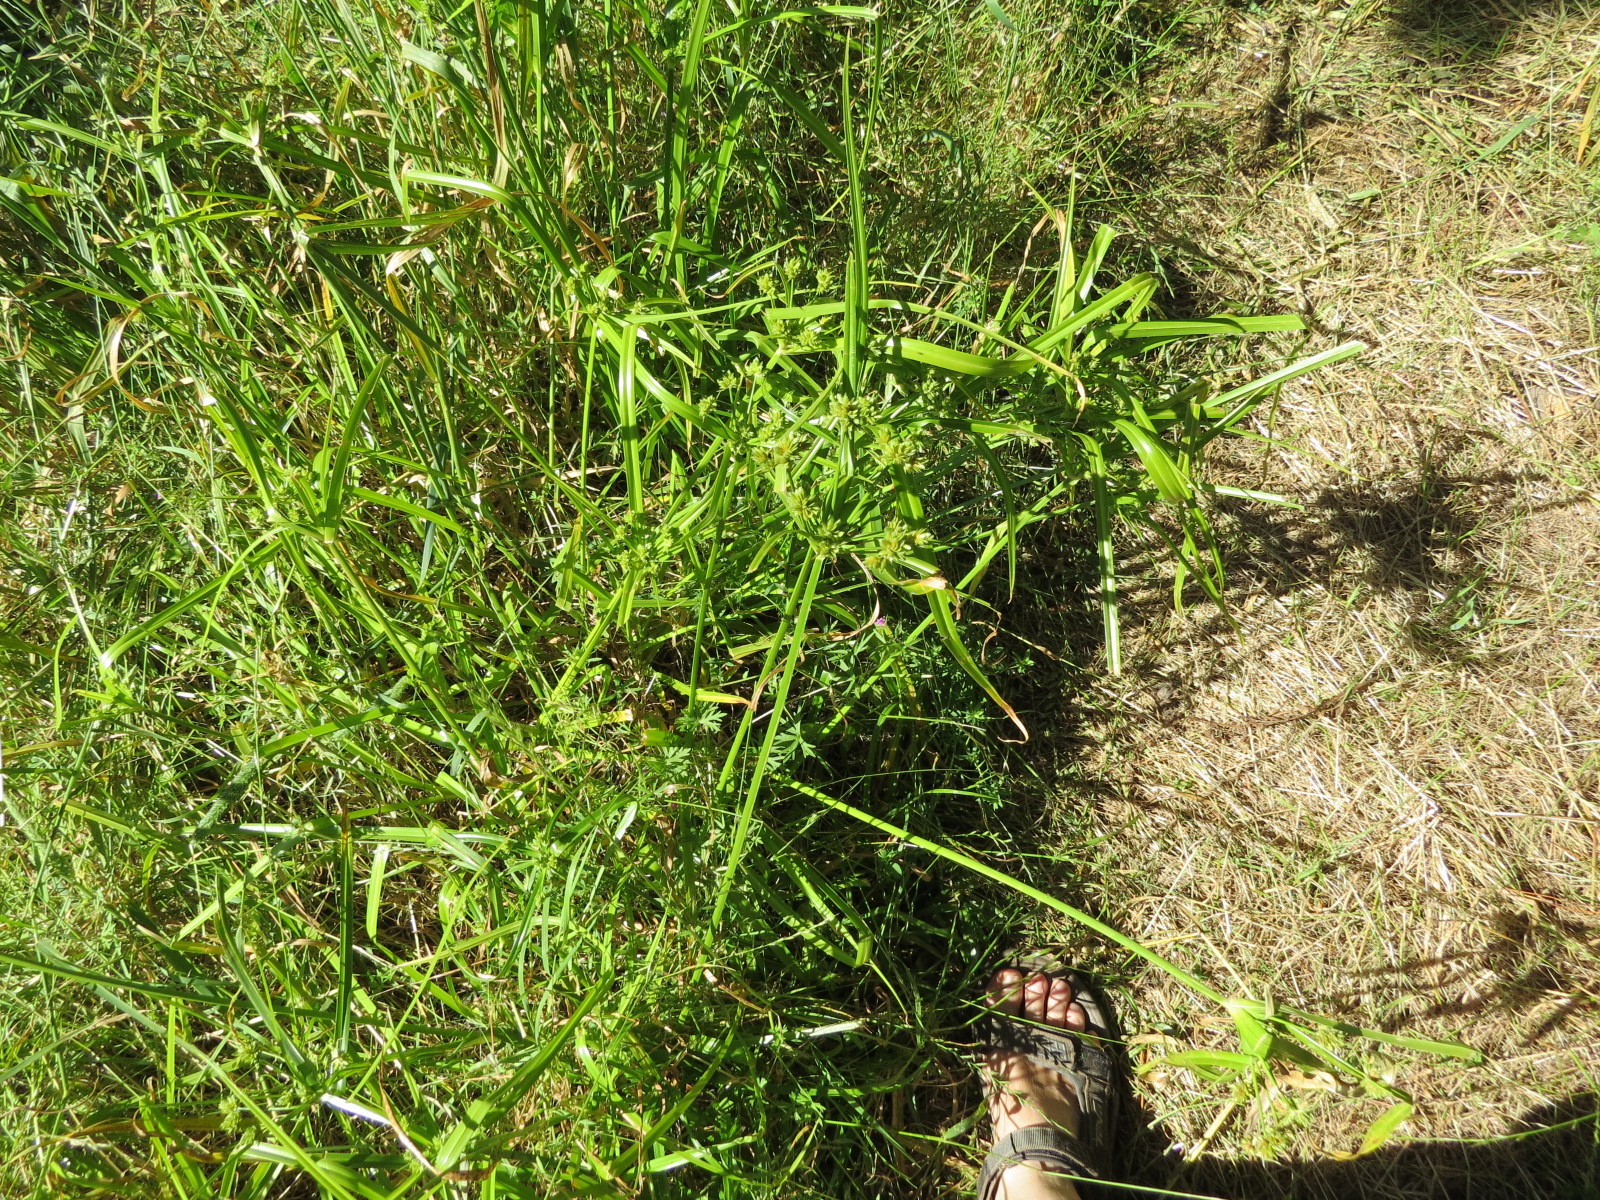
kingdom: Plantae
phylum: Tracheophyta
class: Liliopsida
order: Poales
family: Cyperaceae
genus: Cyperus
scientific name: Cyperus eragrostis
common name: Tall flatsedge
